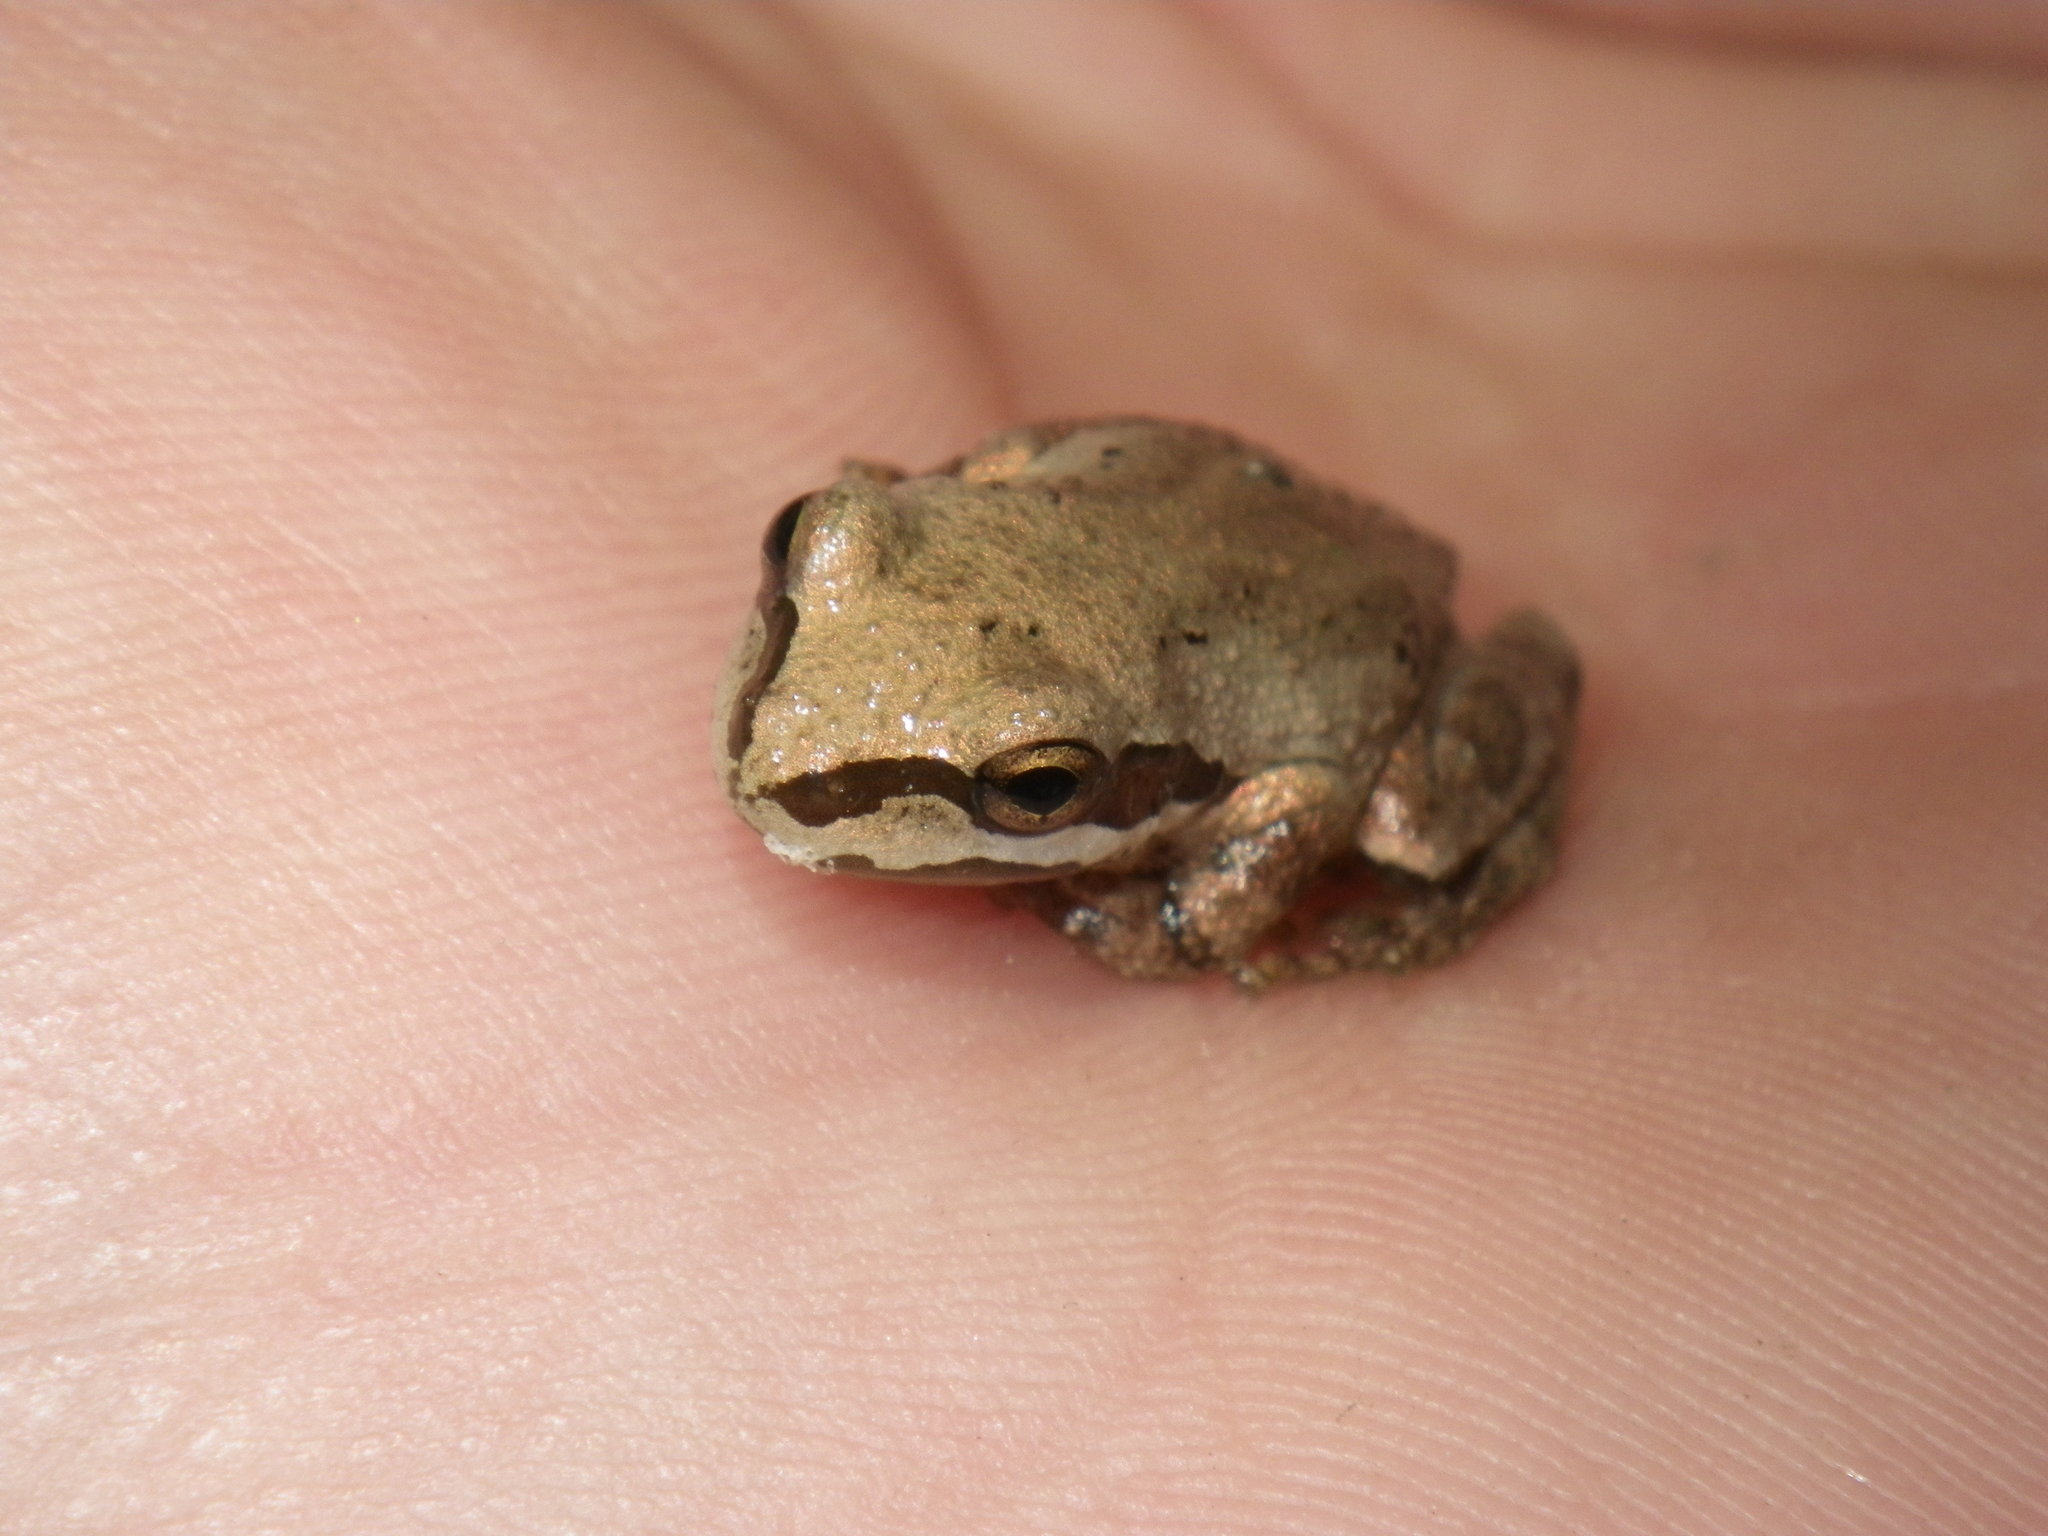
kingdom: Animalia
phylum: Chordata
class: Amphibia
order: Anura
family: Hylidae
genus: Pseudacris
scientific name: Pseudacris regilla
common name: Pacific chorus frog
